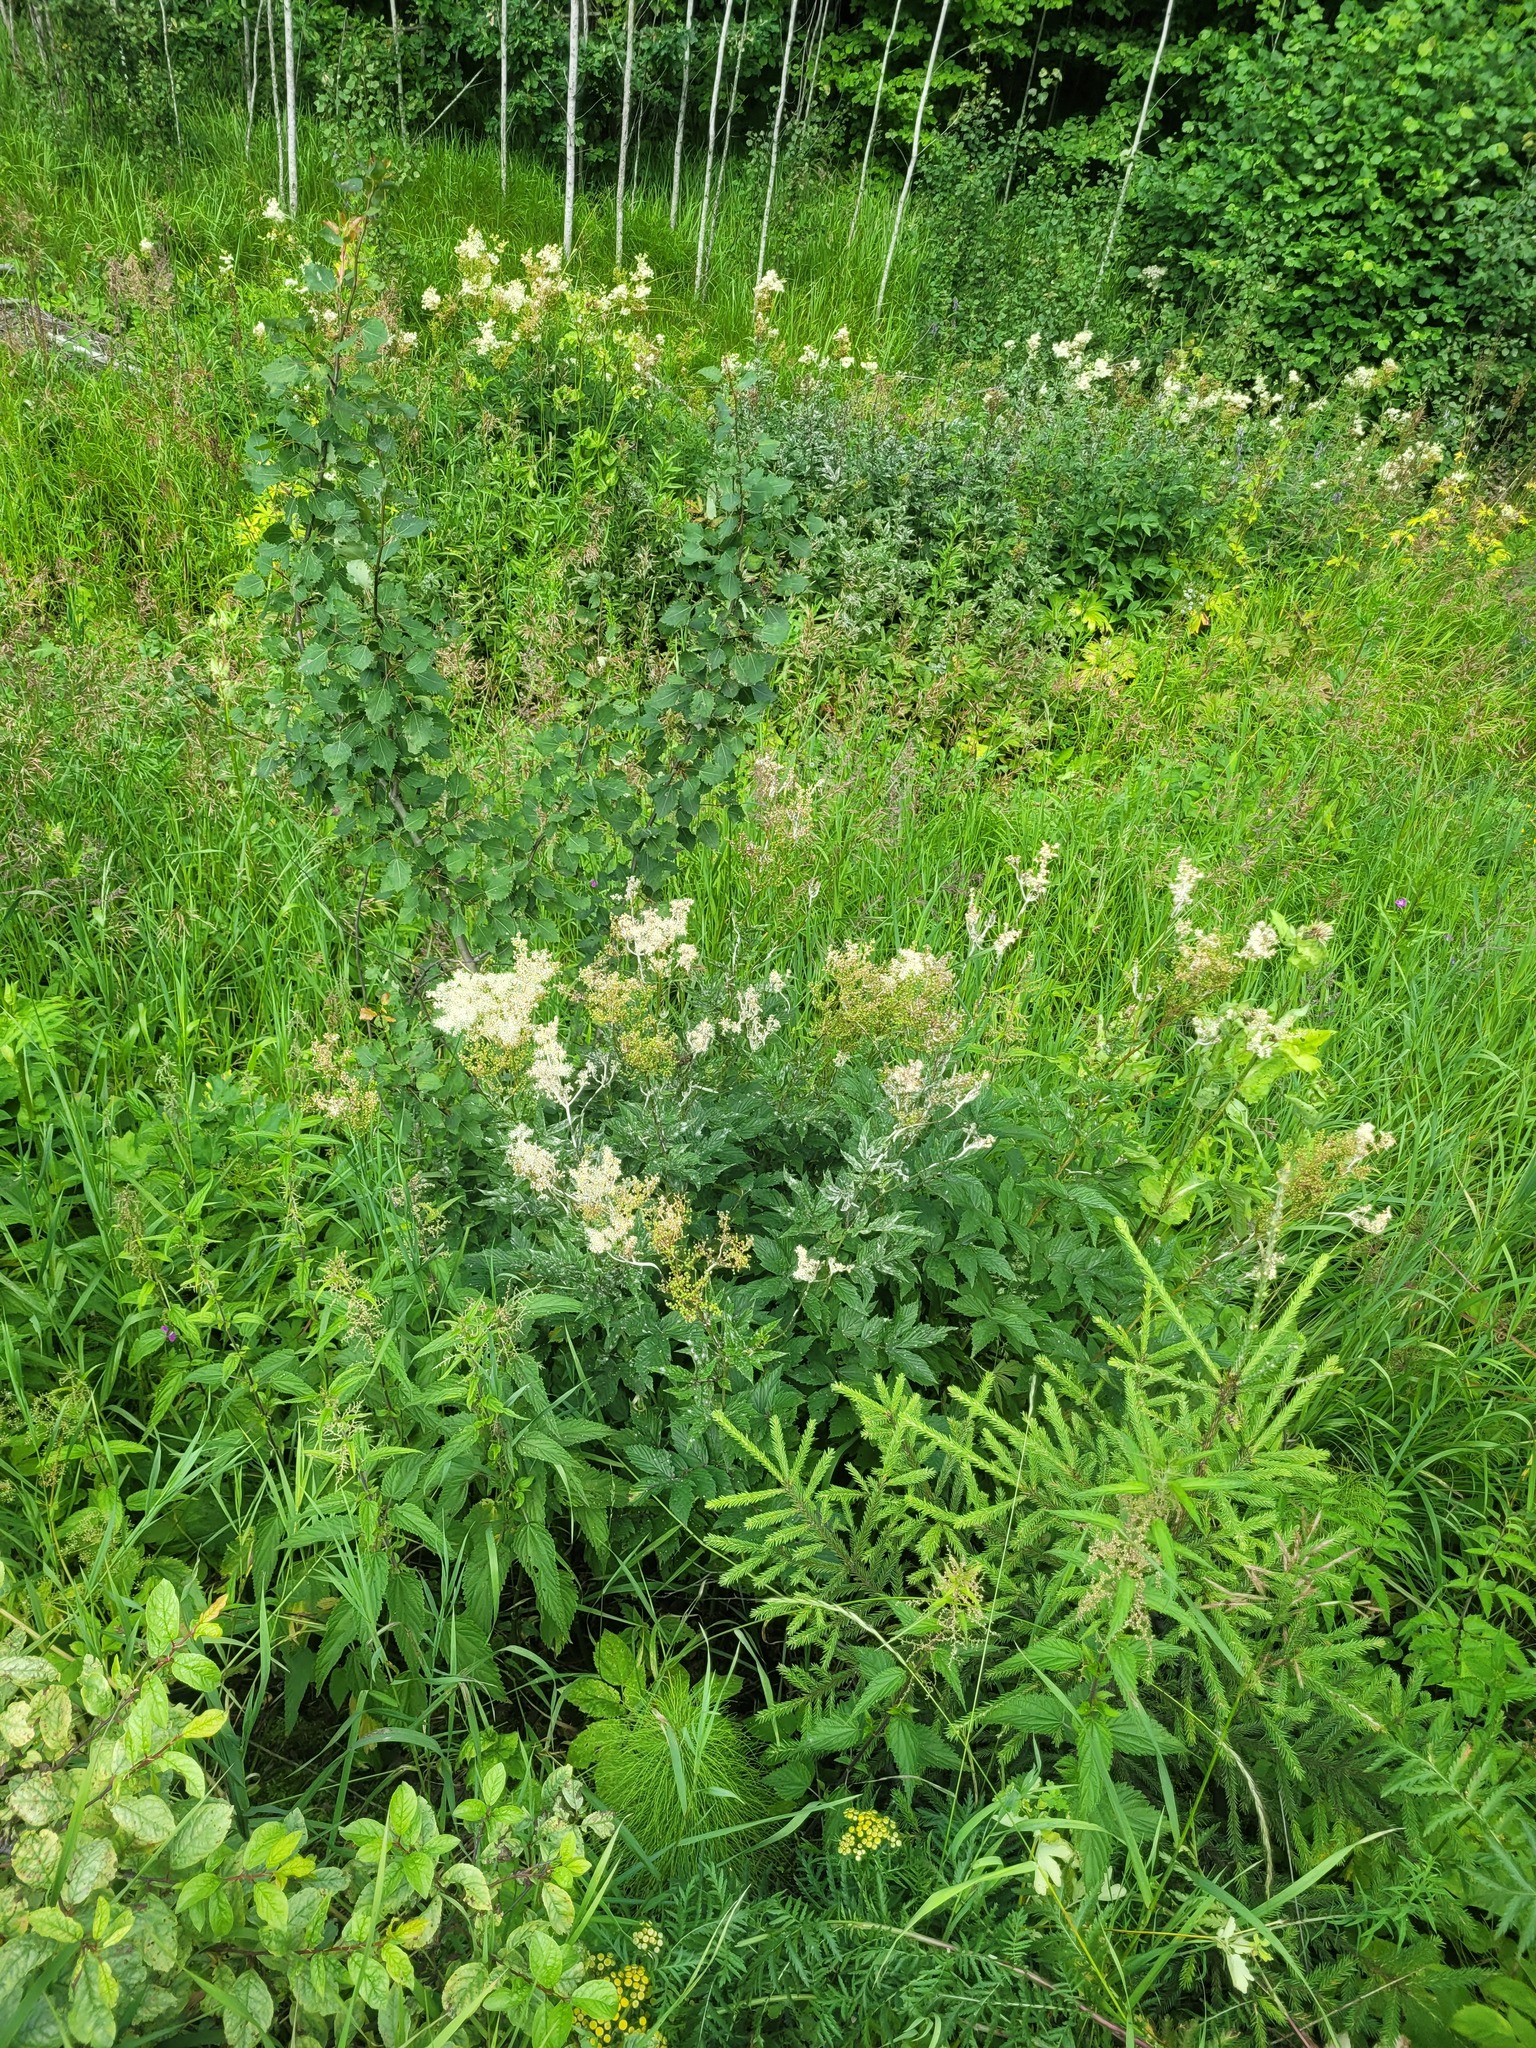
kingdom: Plantae
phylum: Tracheophyta
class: Magnoliopsida
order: Rosales
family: Rosaceae
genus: Filipendula
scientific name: Filipendula ulmaria
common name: Meadowsweet
